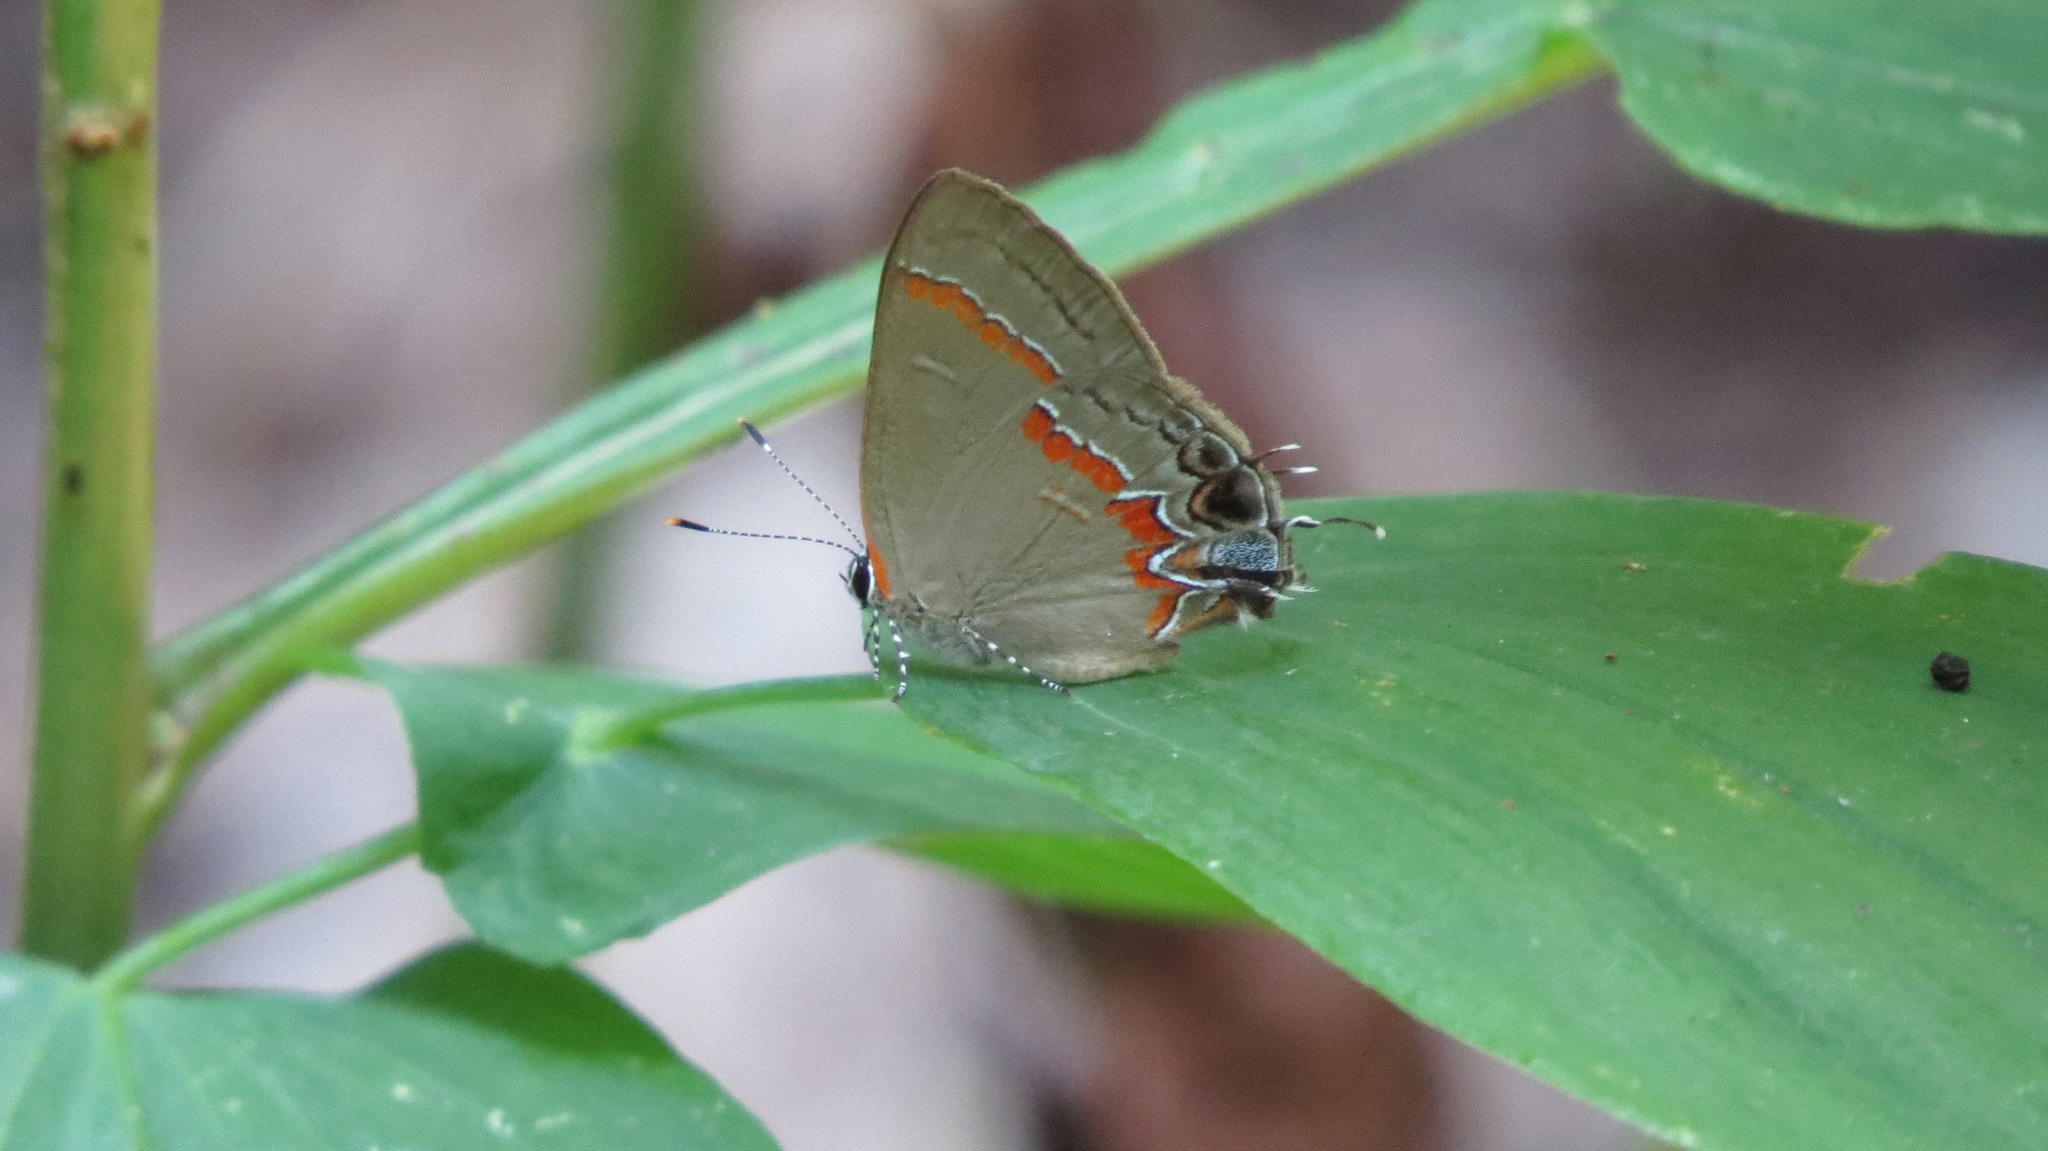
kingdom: Animalia
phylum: Arthropoda
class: Insecta
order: Lepidoptera
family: Lycaenidae
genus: Calycopis
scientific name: Calycopis cecrops
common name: Red-banded hairstreak
